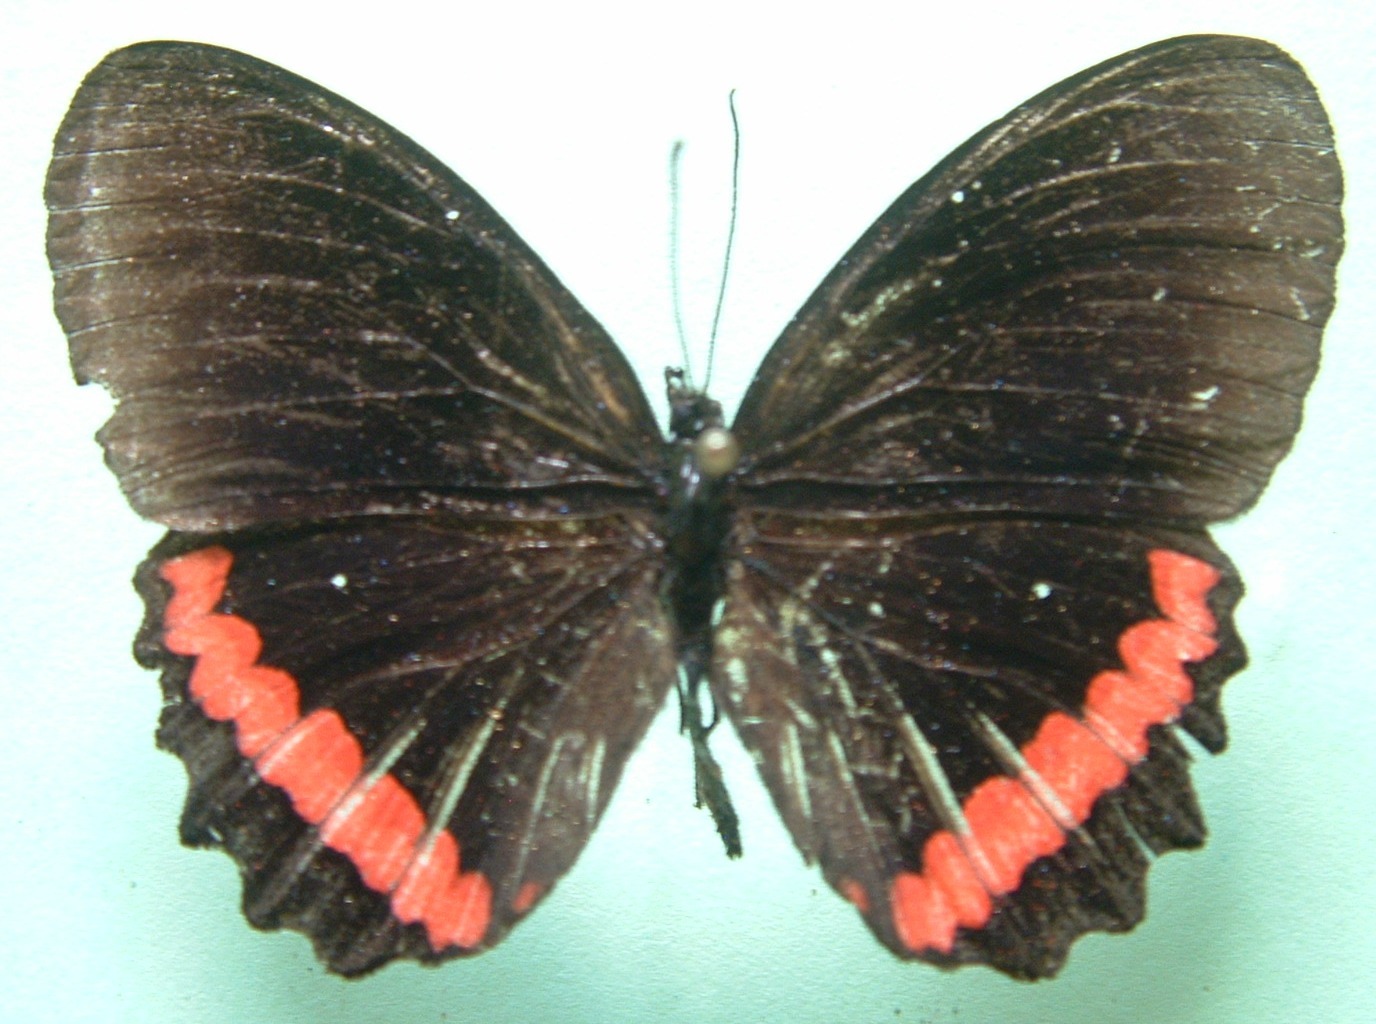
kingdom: Animalia
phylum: Arthropoda
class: Insecta
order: Lepidoptera
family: Nymphalidae
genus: Biblis
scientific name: Biblis aganisa
